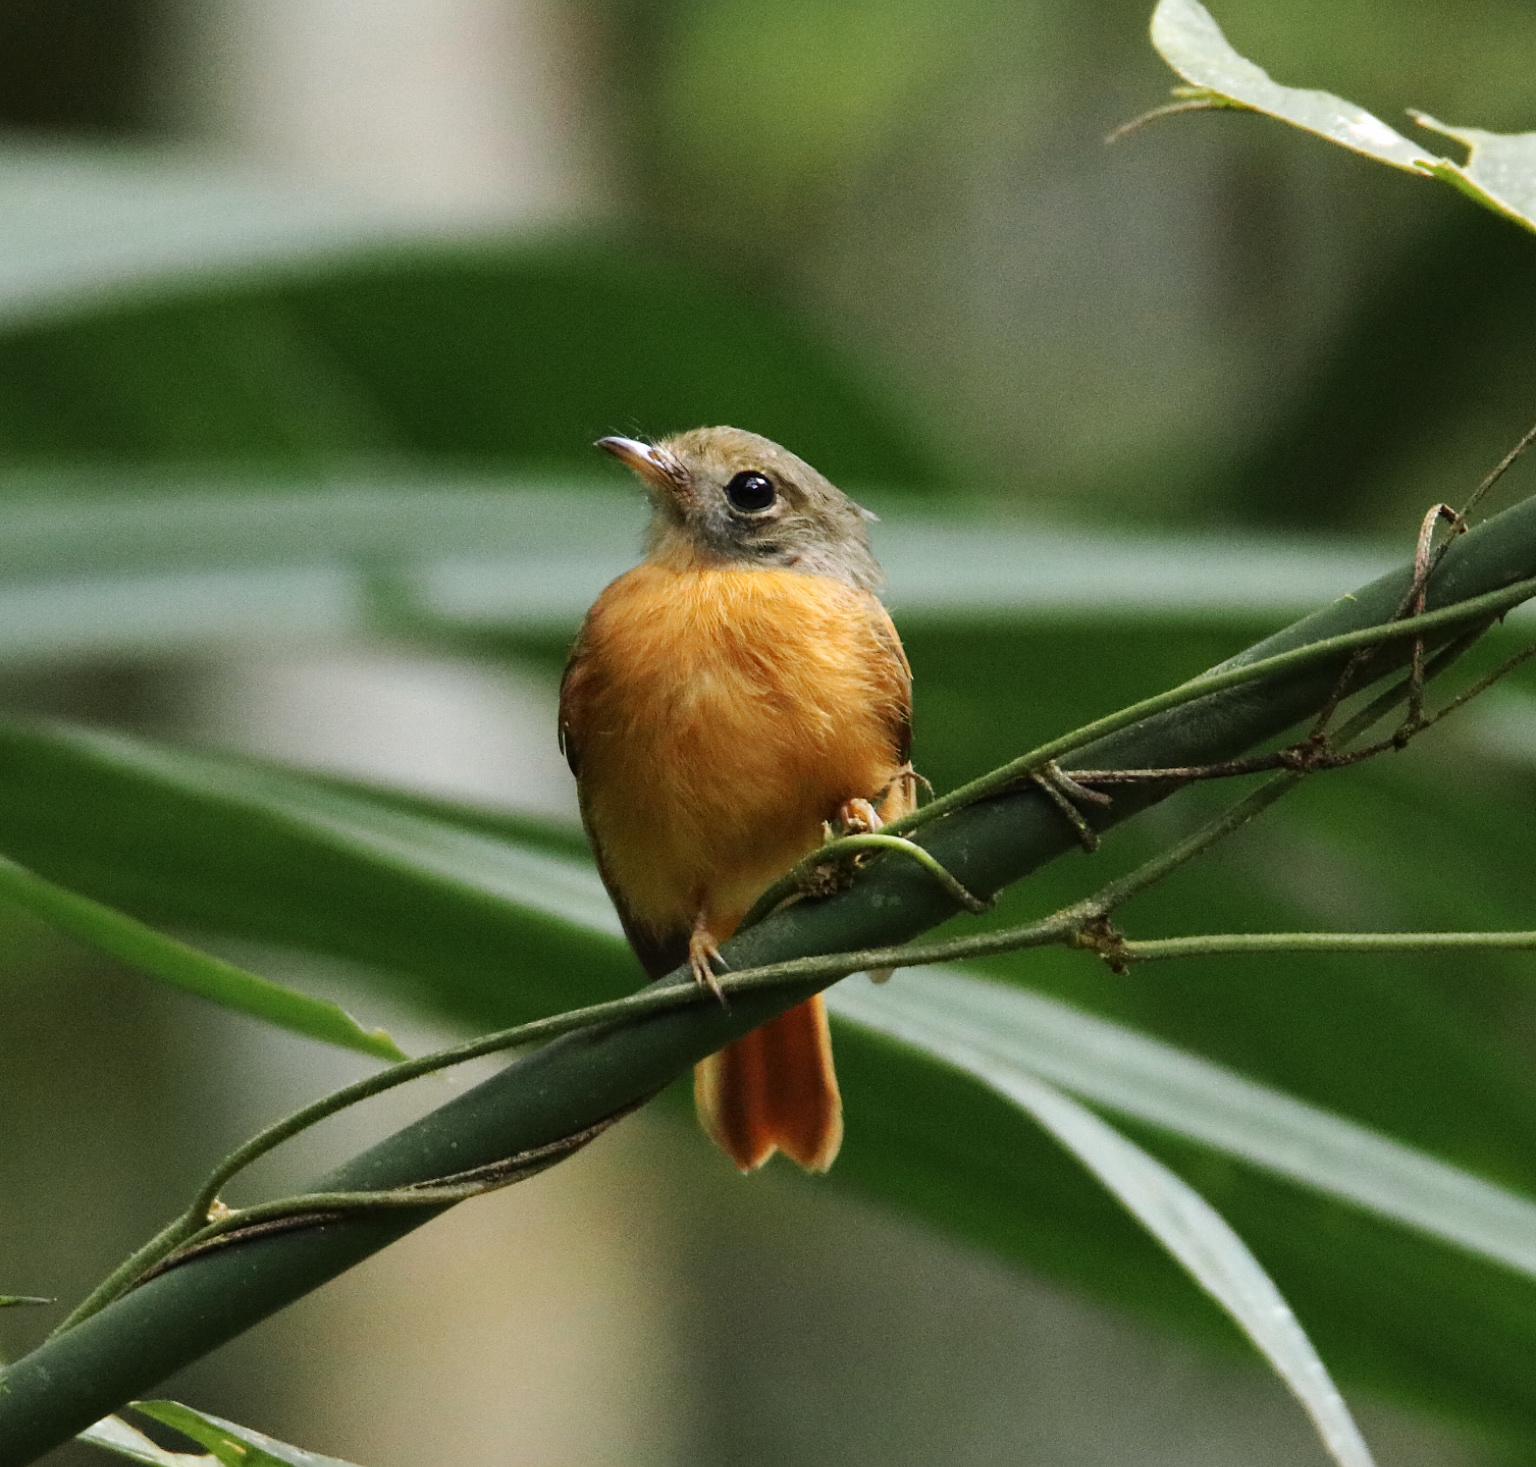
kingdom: Animalia
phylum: Chordata
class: Aves
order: Passeriformes
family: Tyrannidae
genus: Terenotriccus
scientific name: Terenotriccus erythrurus
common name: Ruddy-tailed flycatcher
